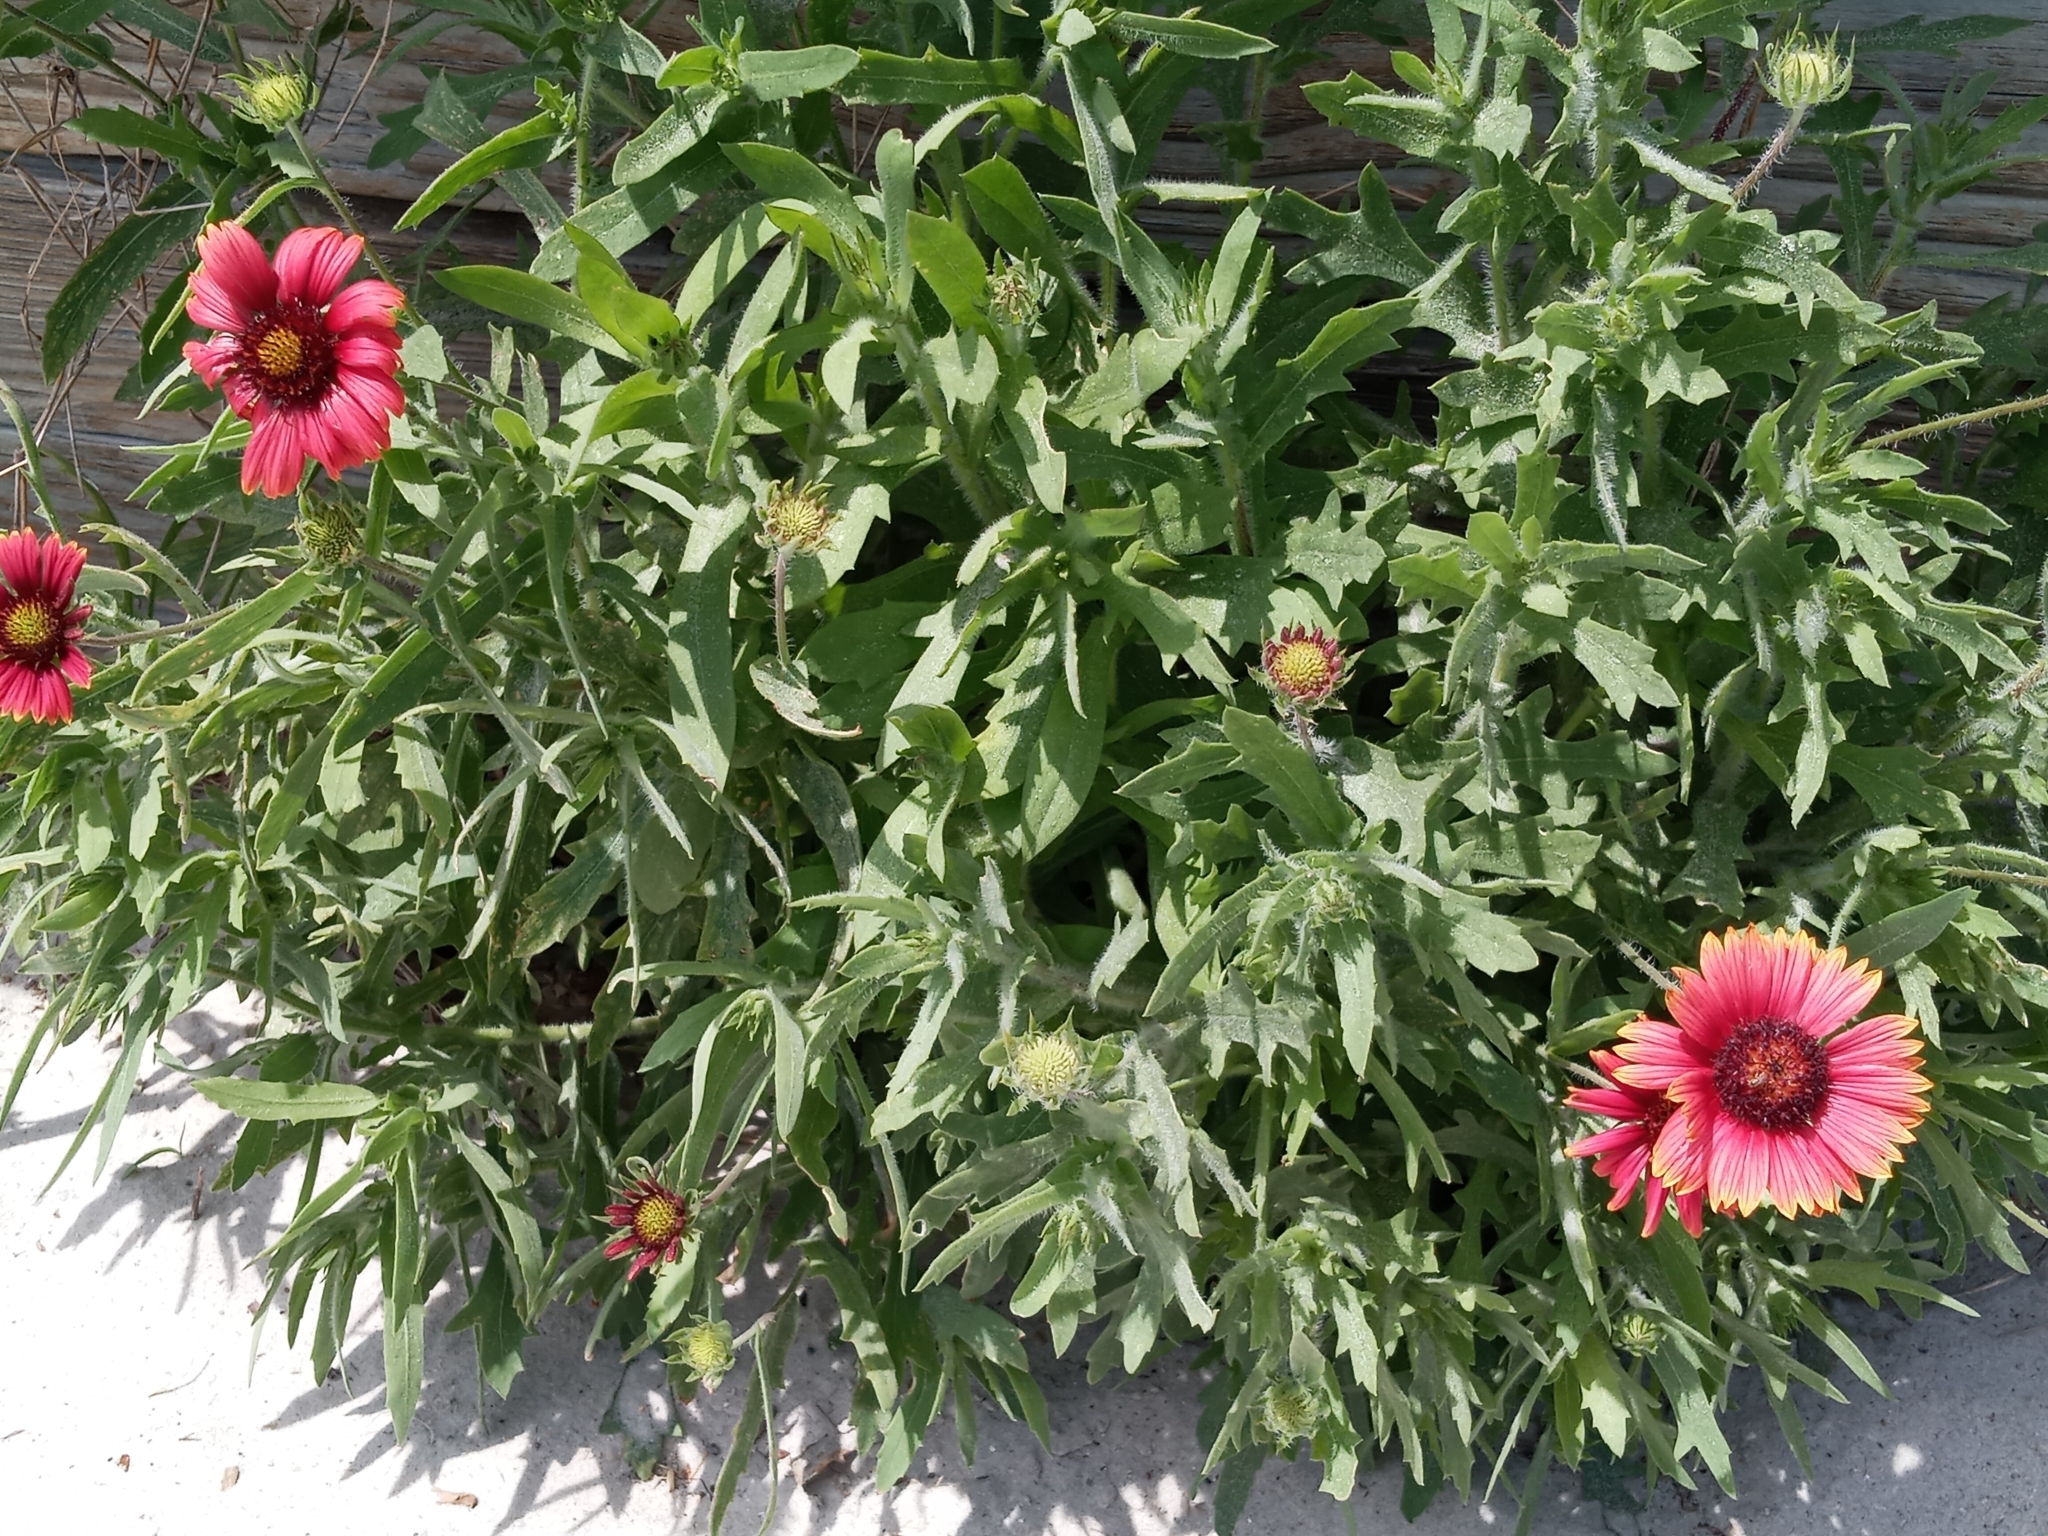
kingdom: Plantae
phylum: Tracheophyta
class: Magnoliopsida
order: Asterales
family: Asteraceae
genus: Gaillardia
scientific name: Gaillardia pulchella
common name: Firewheel
